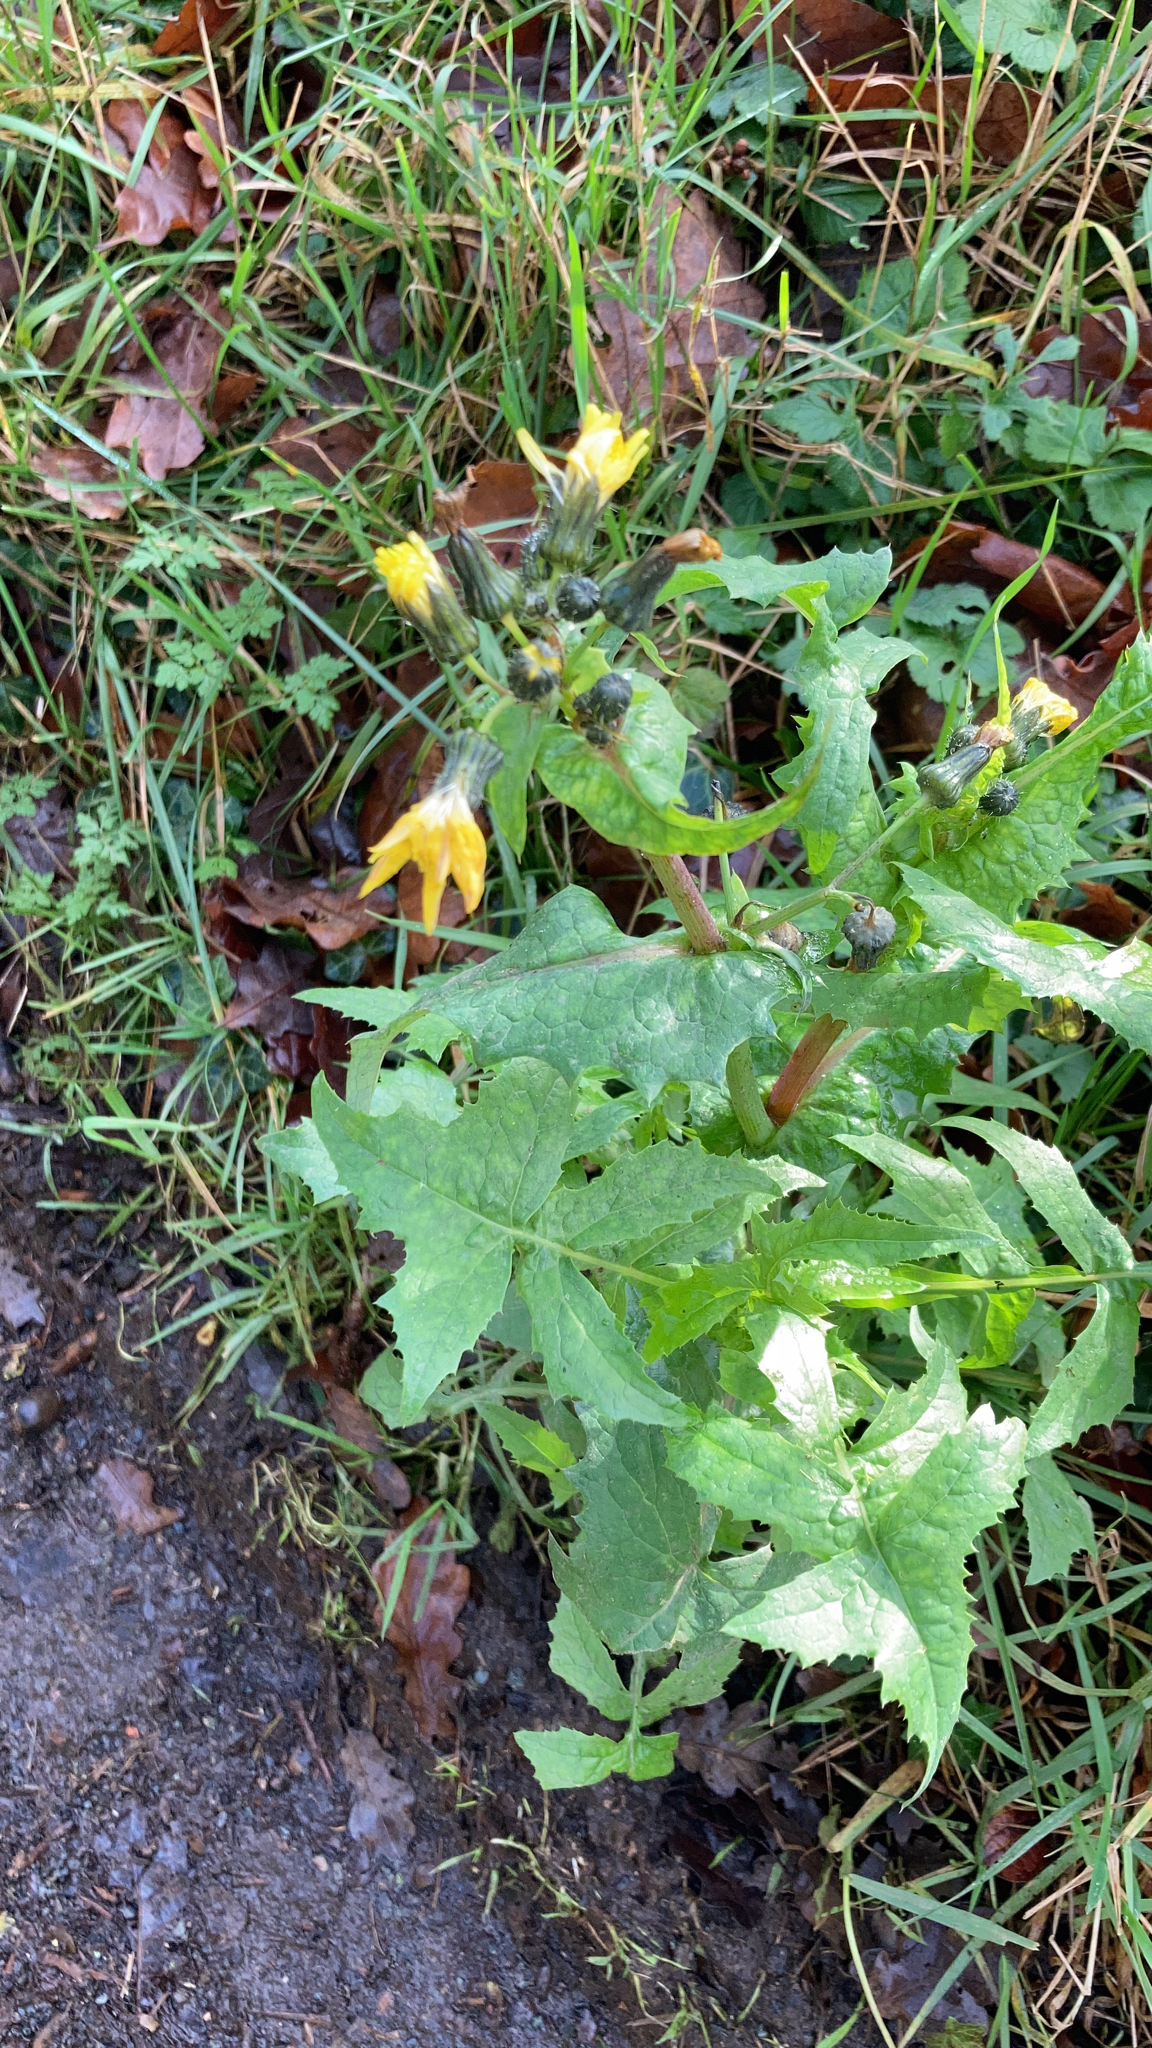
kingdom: Plantae
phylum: Tracheophyta
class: Magnoliopsida
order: Asterales
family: Asteraceae
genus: Sonchus
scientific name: Sonchus oleraceus
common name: Common sowthistle
